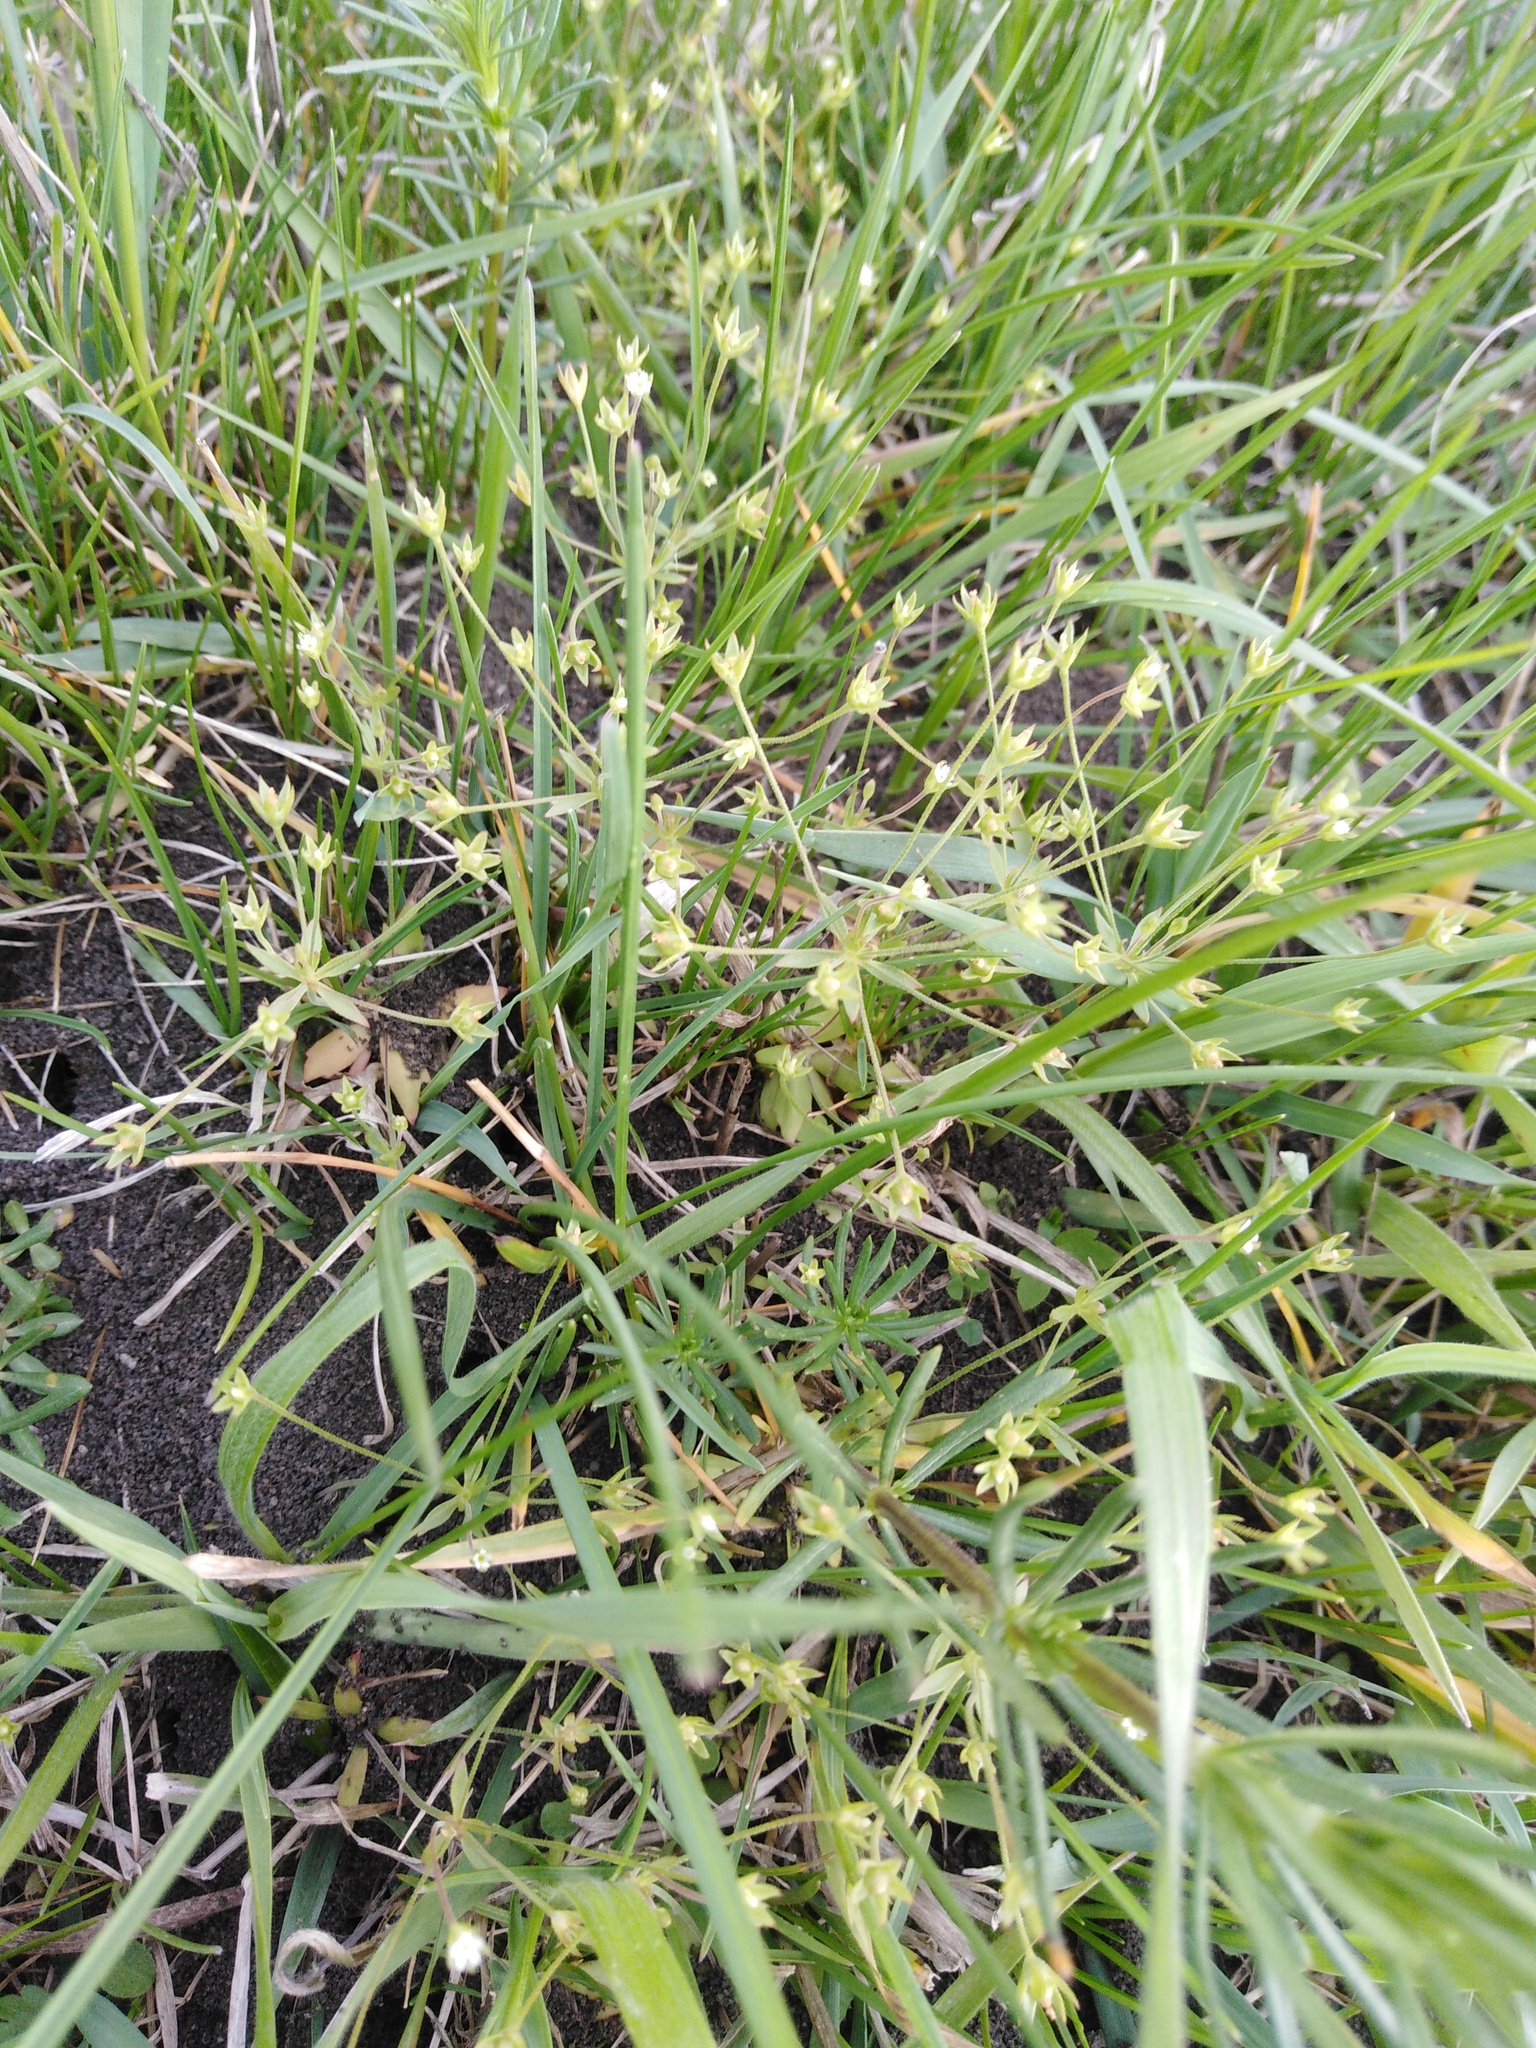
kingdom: Plantae
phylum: Tracheophyta
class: Magnoliopsida
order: Ericales
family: Primulaceae
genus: Androsace
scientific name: Androsace elongata
